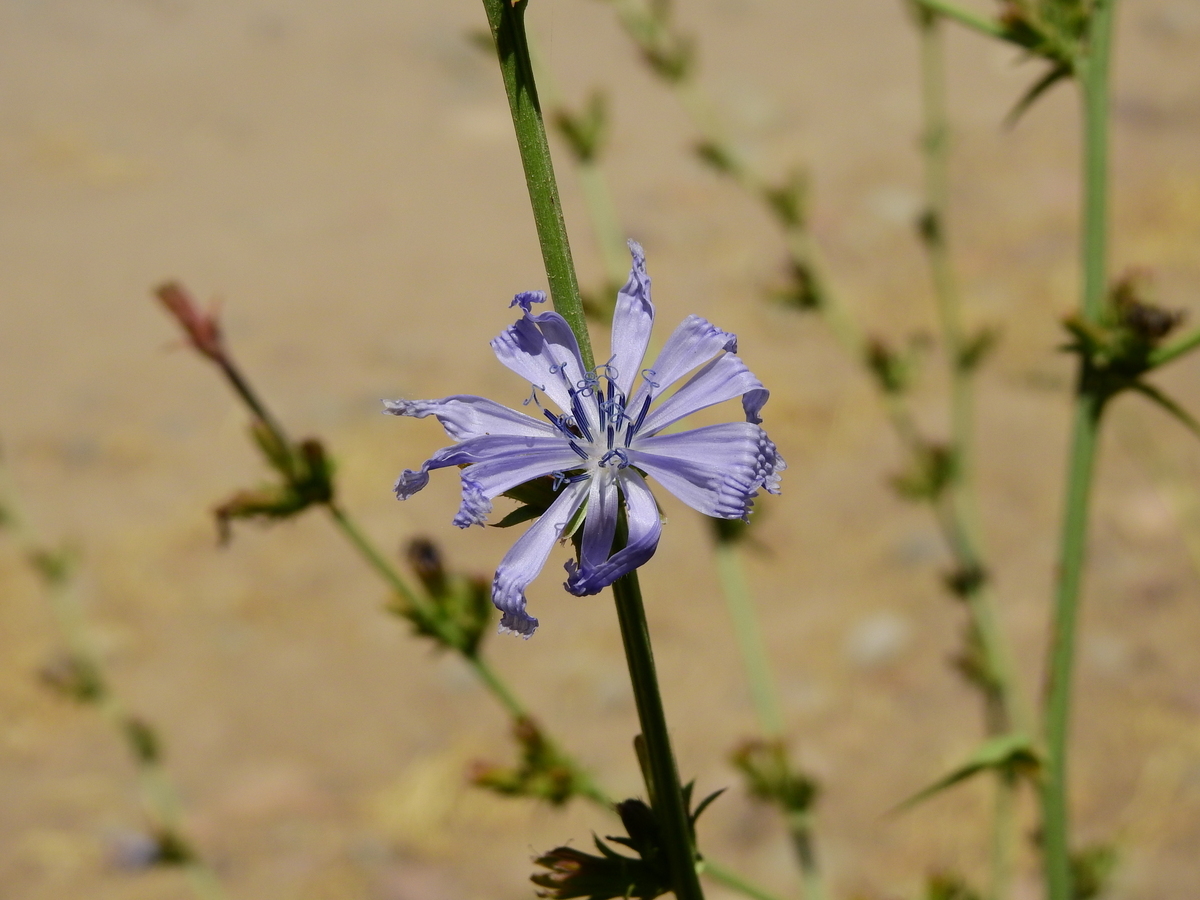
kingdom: Plantae
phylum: Tracheophyta
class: Magnoliopsida
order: Asterales
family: Asteraceae
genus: Cichorium
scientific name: Cichorium intybus
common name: Chicory
